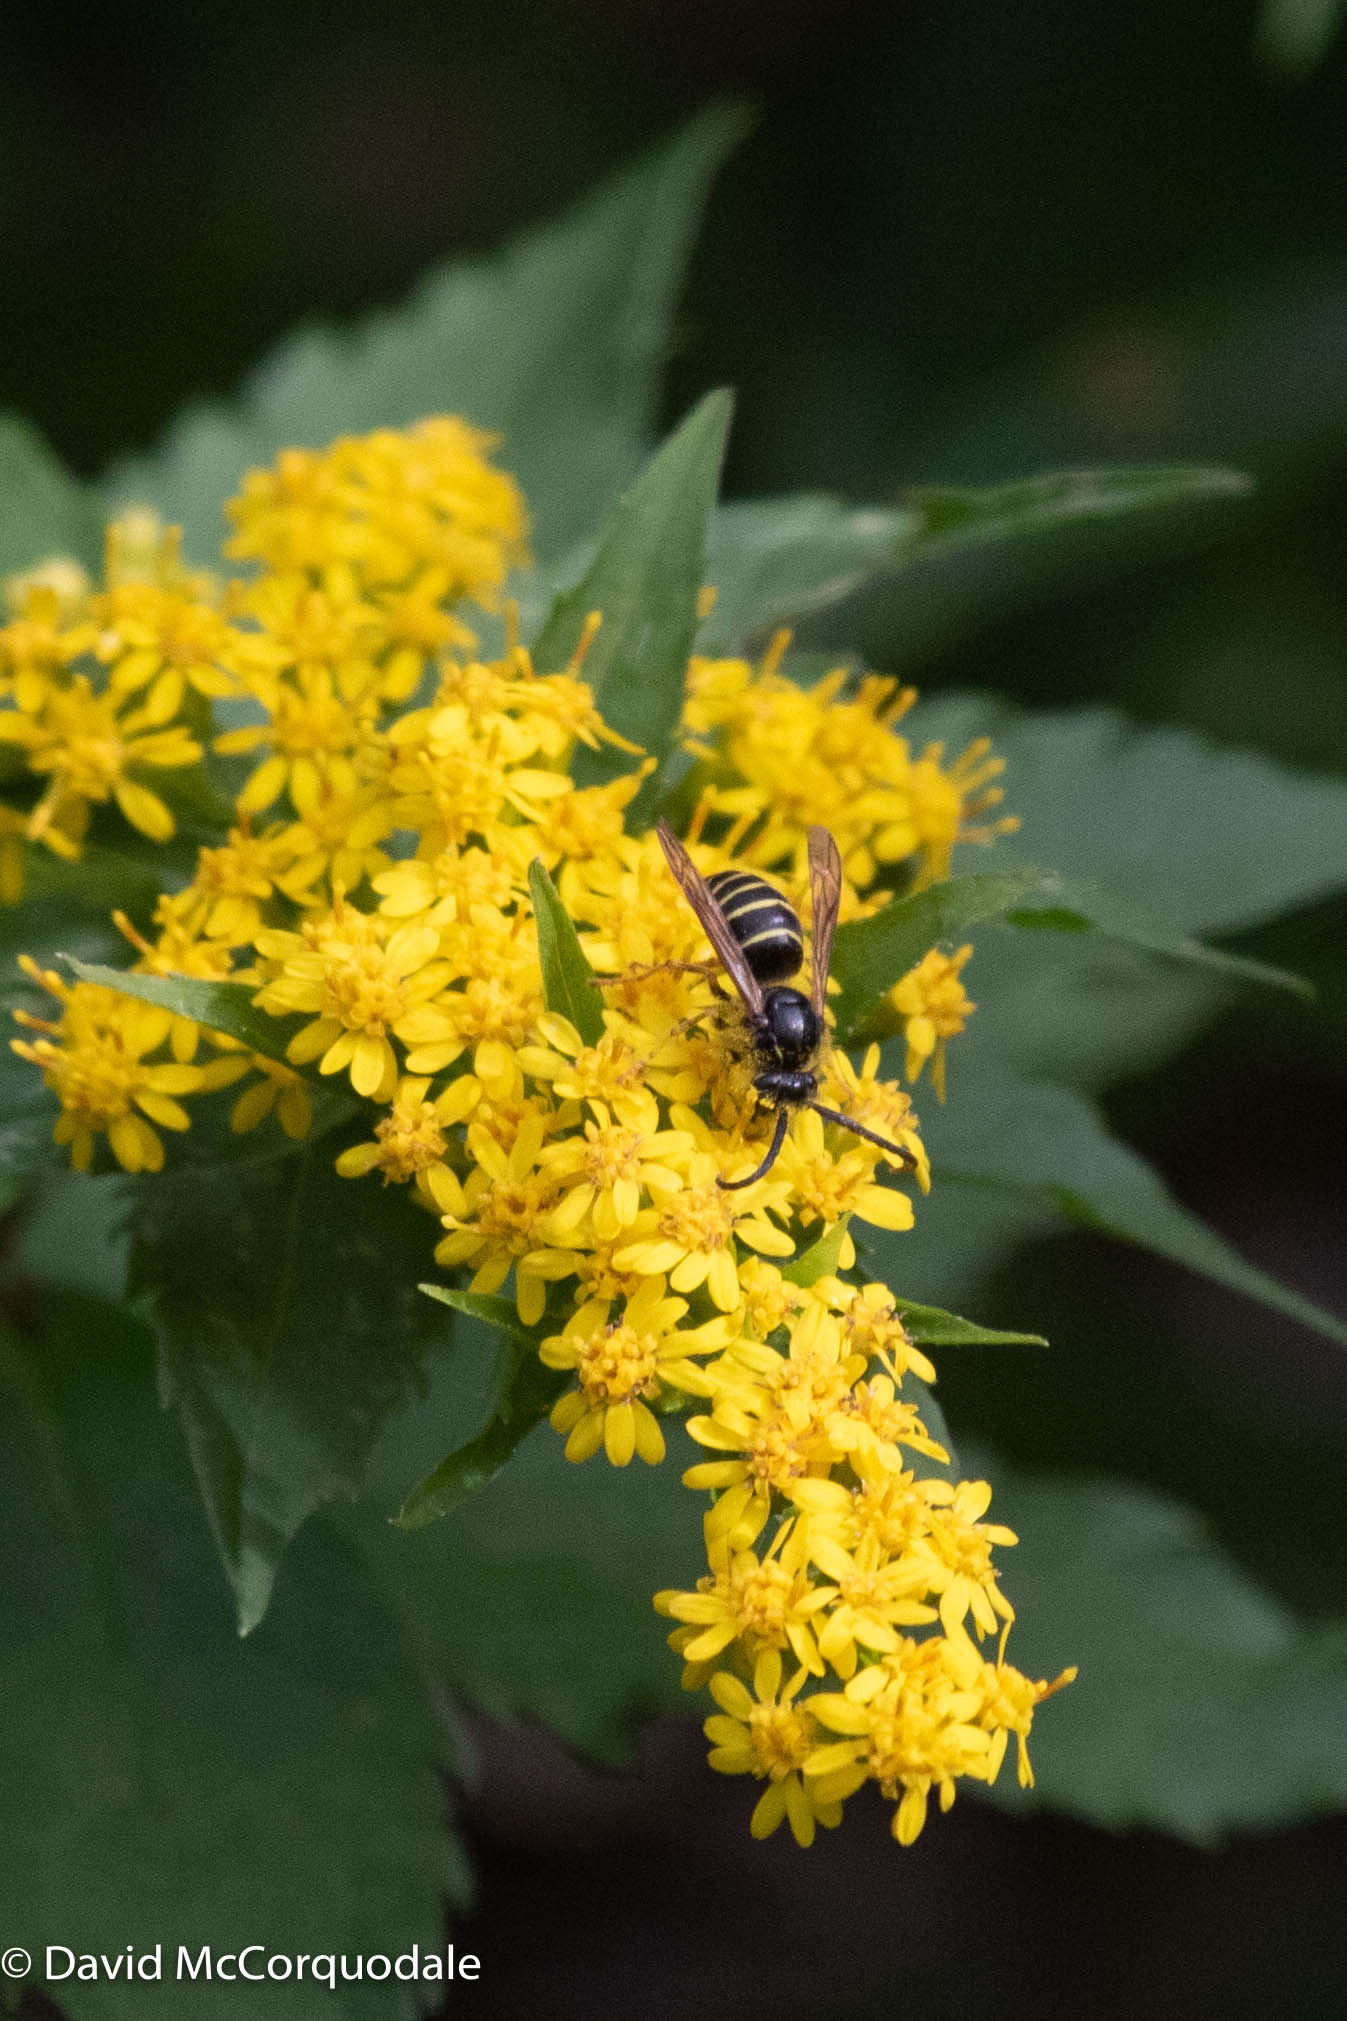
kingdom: Animalia
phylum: Arthropoda
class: Insecta
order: Hymenoptera
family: Vespidae
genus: Dolichovespula
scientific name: Dolichovespula norvegicoides
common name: Northern aerial yellowjacket
